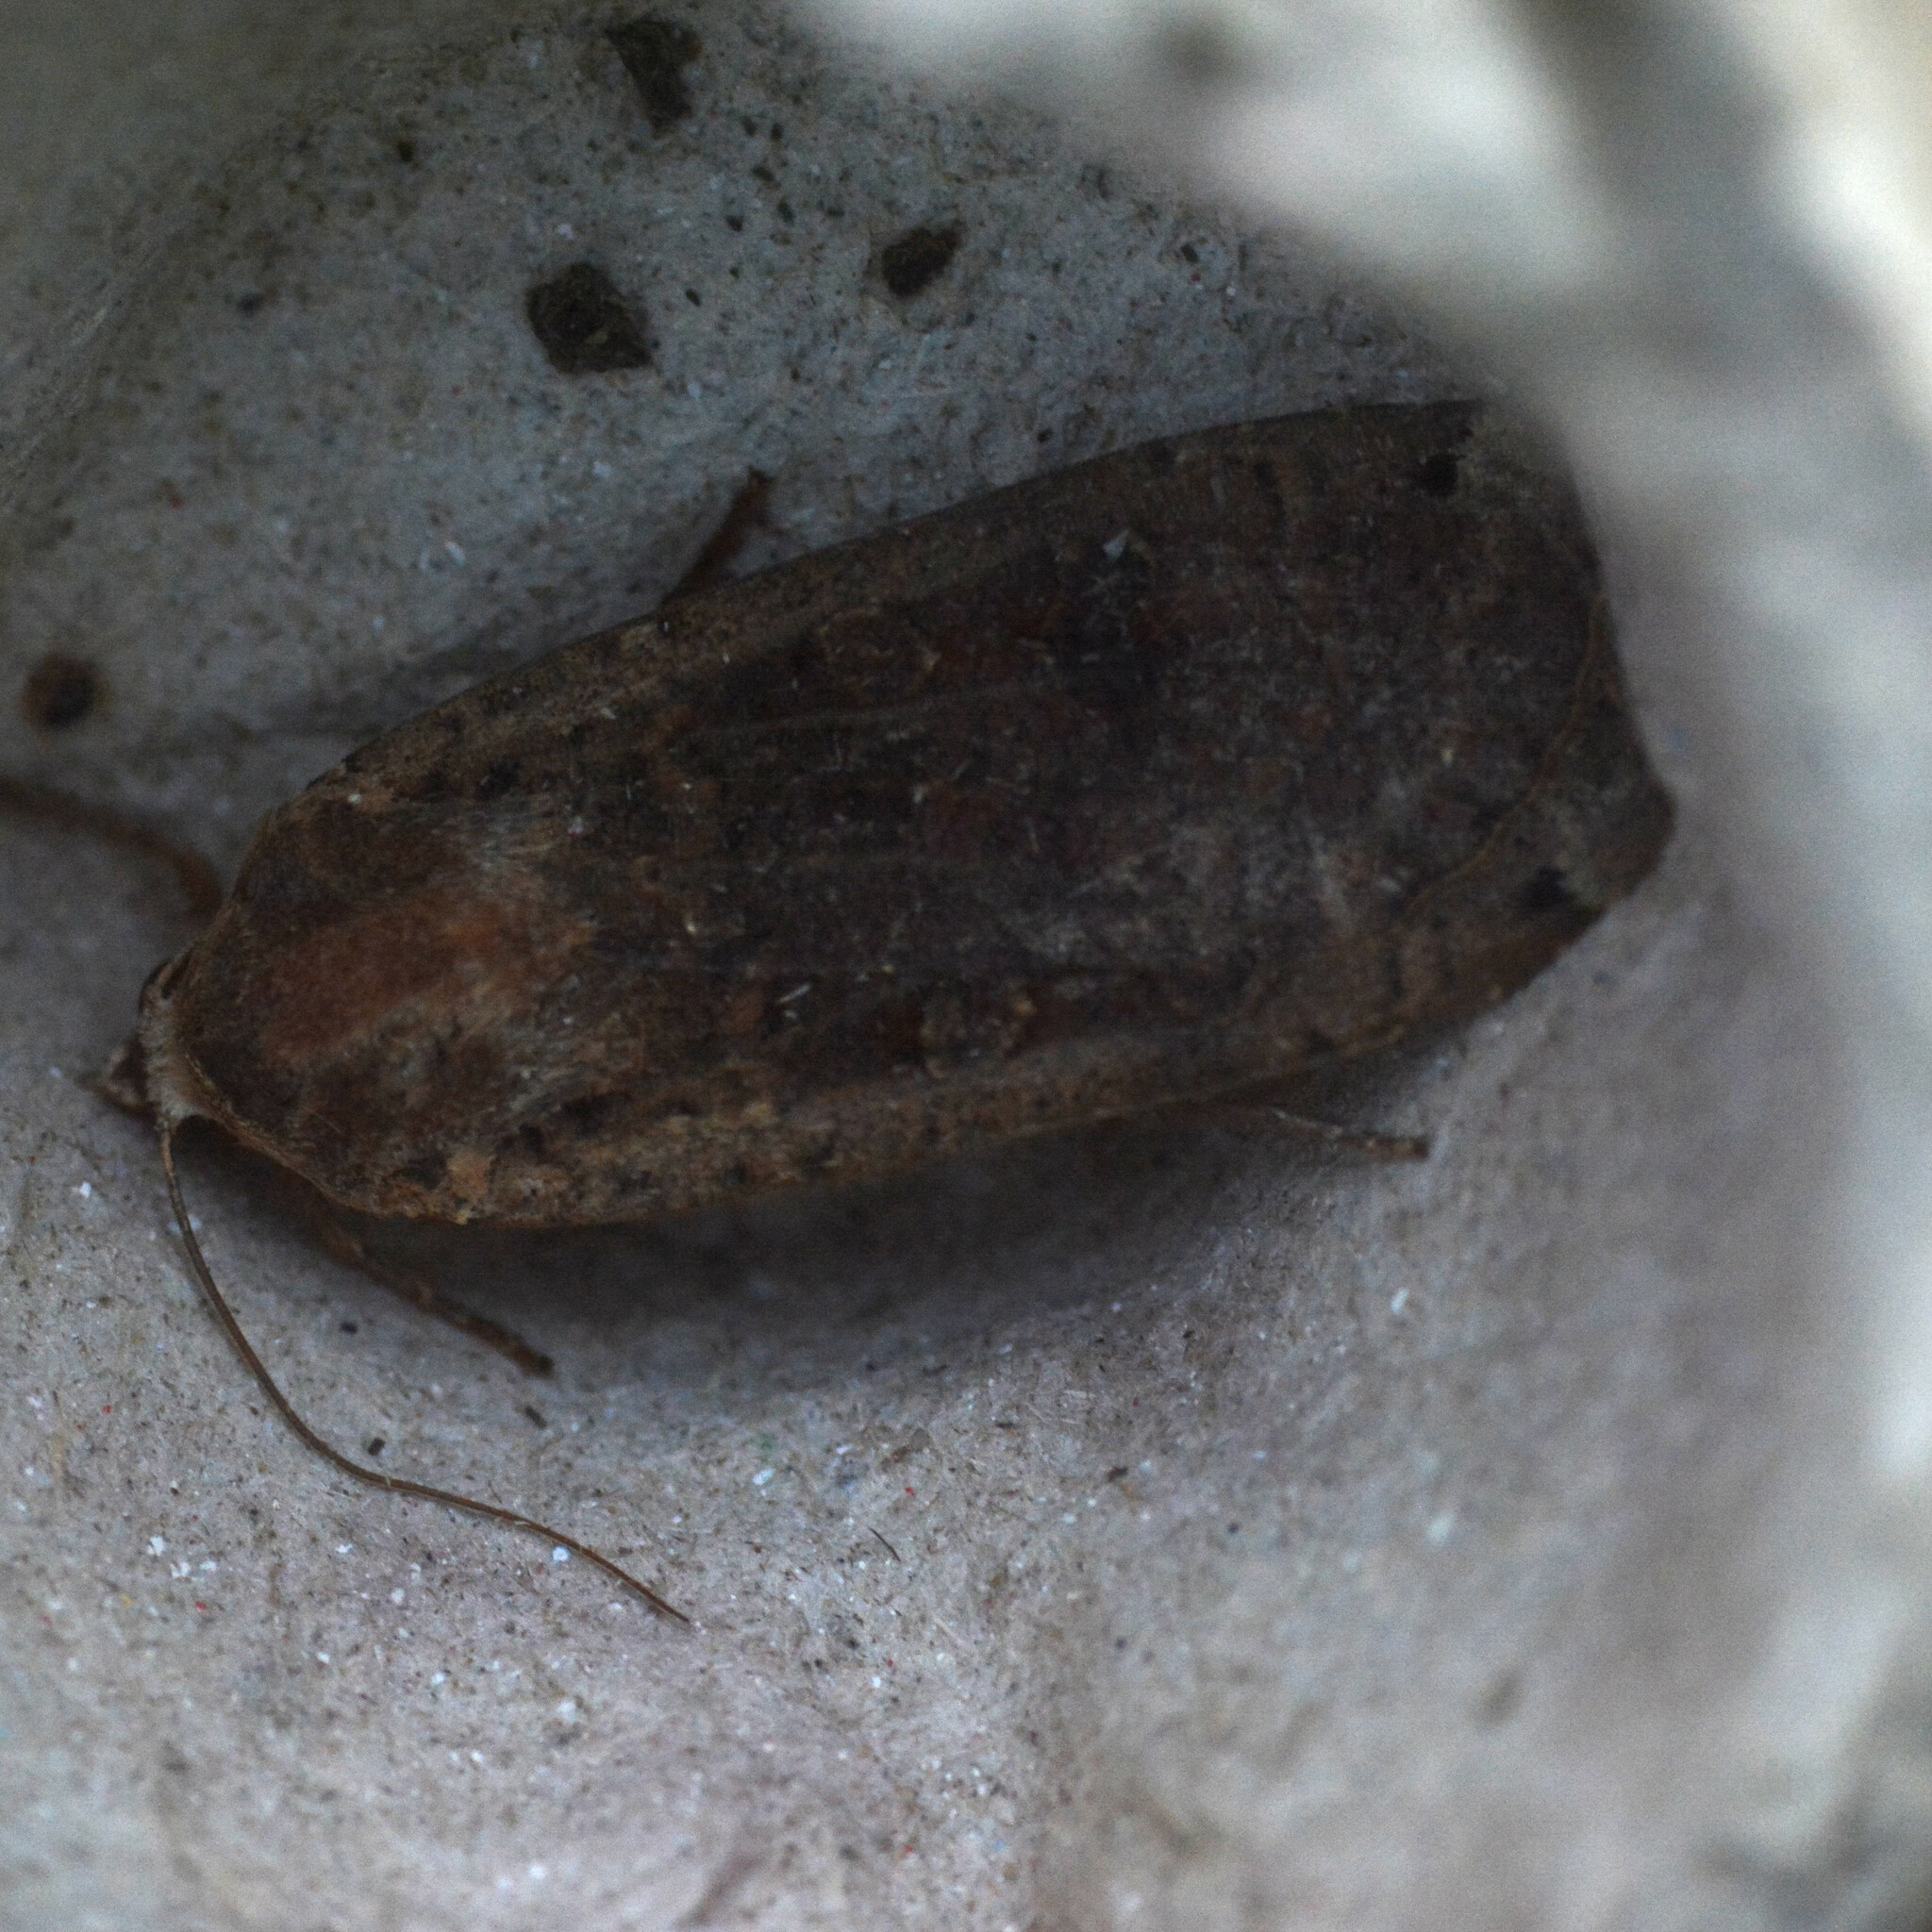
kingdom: Animalia
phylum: Arthropoda
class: Insecta
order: Lepidoptera
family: Noctuidae
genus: Noctua
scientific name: Noctua pronuba
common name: Large yellow underwing
